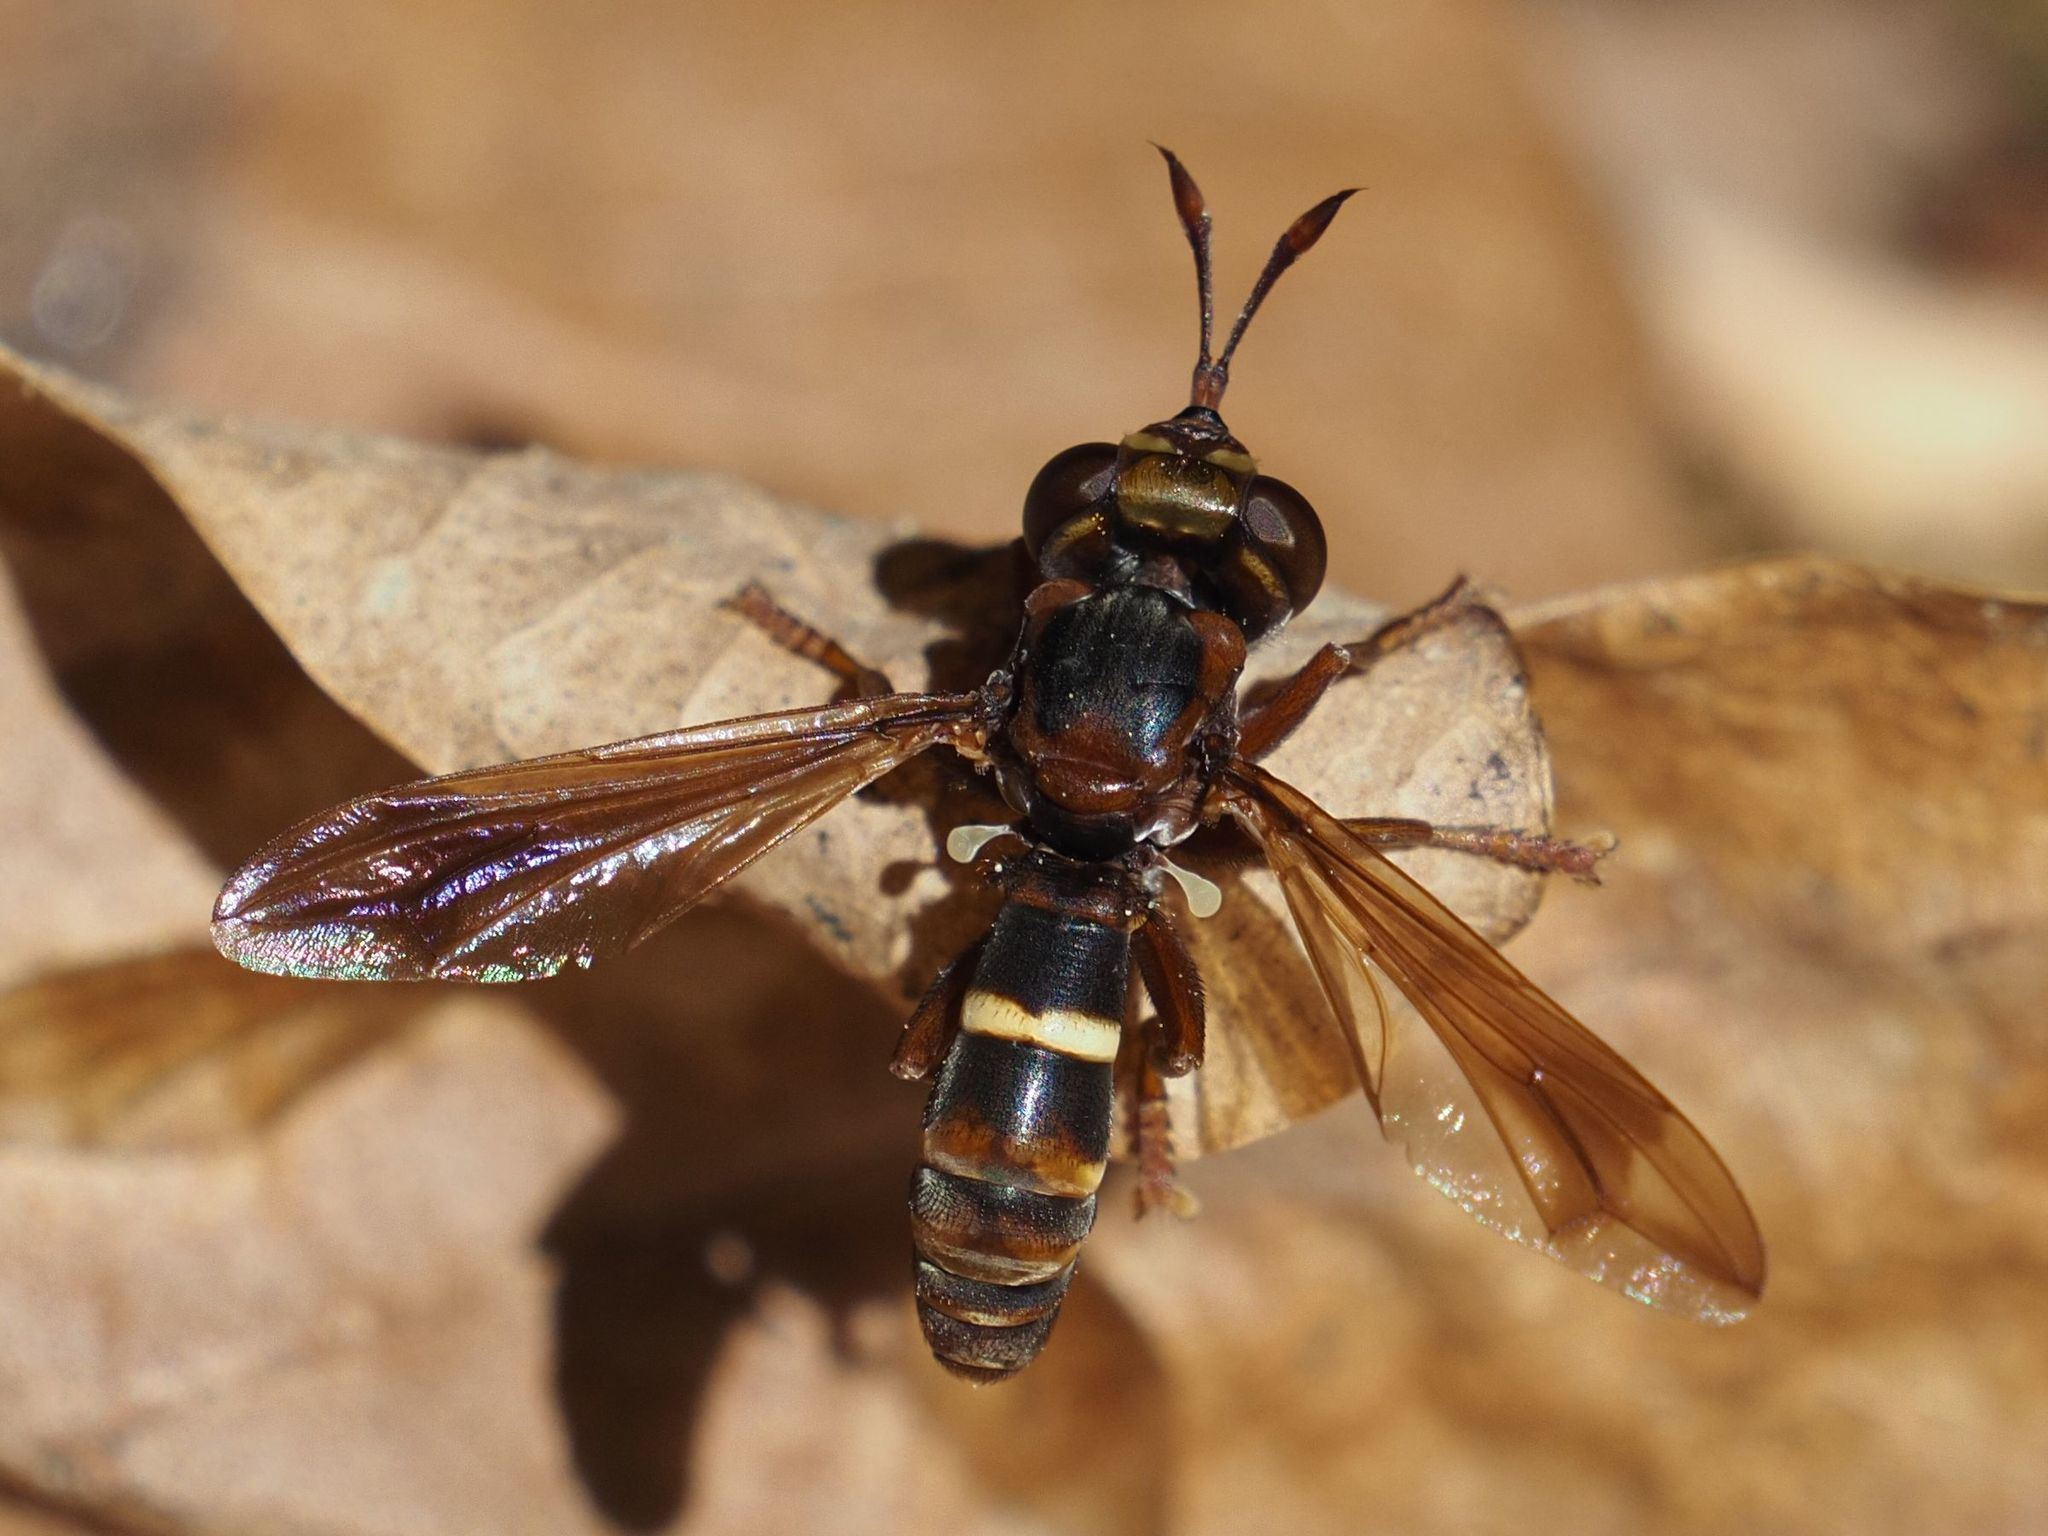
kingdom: Animalia
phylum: Arthropoda
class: Insecta
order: Diptera
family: Conopidae
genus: Conops
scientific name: Conops vesicularis
